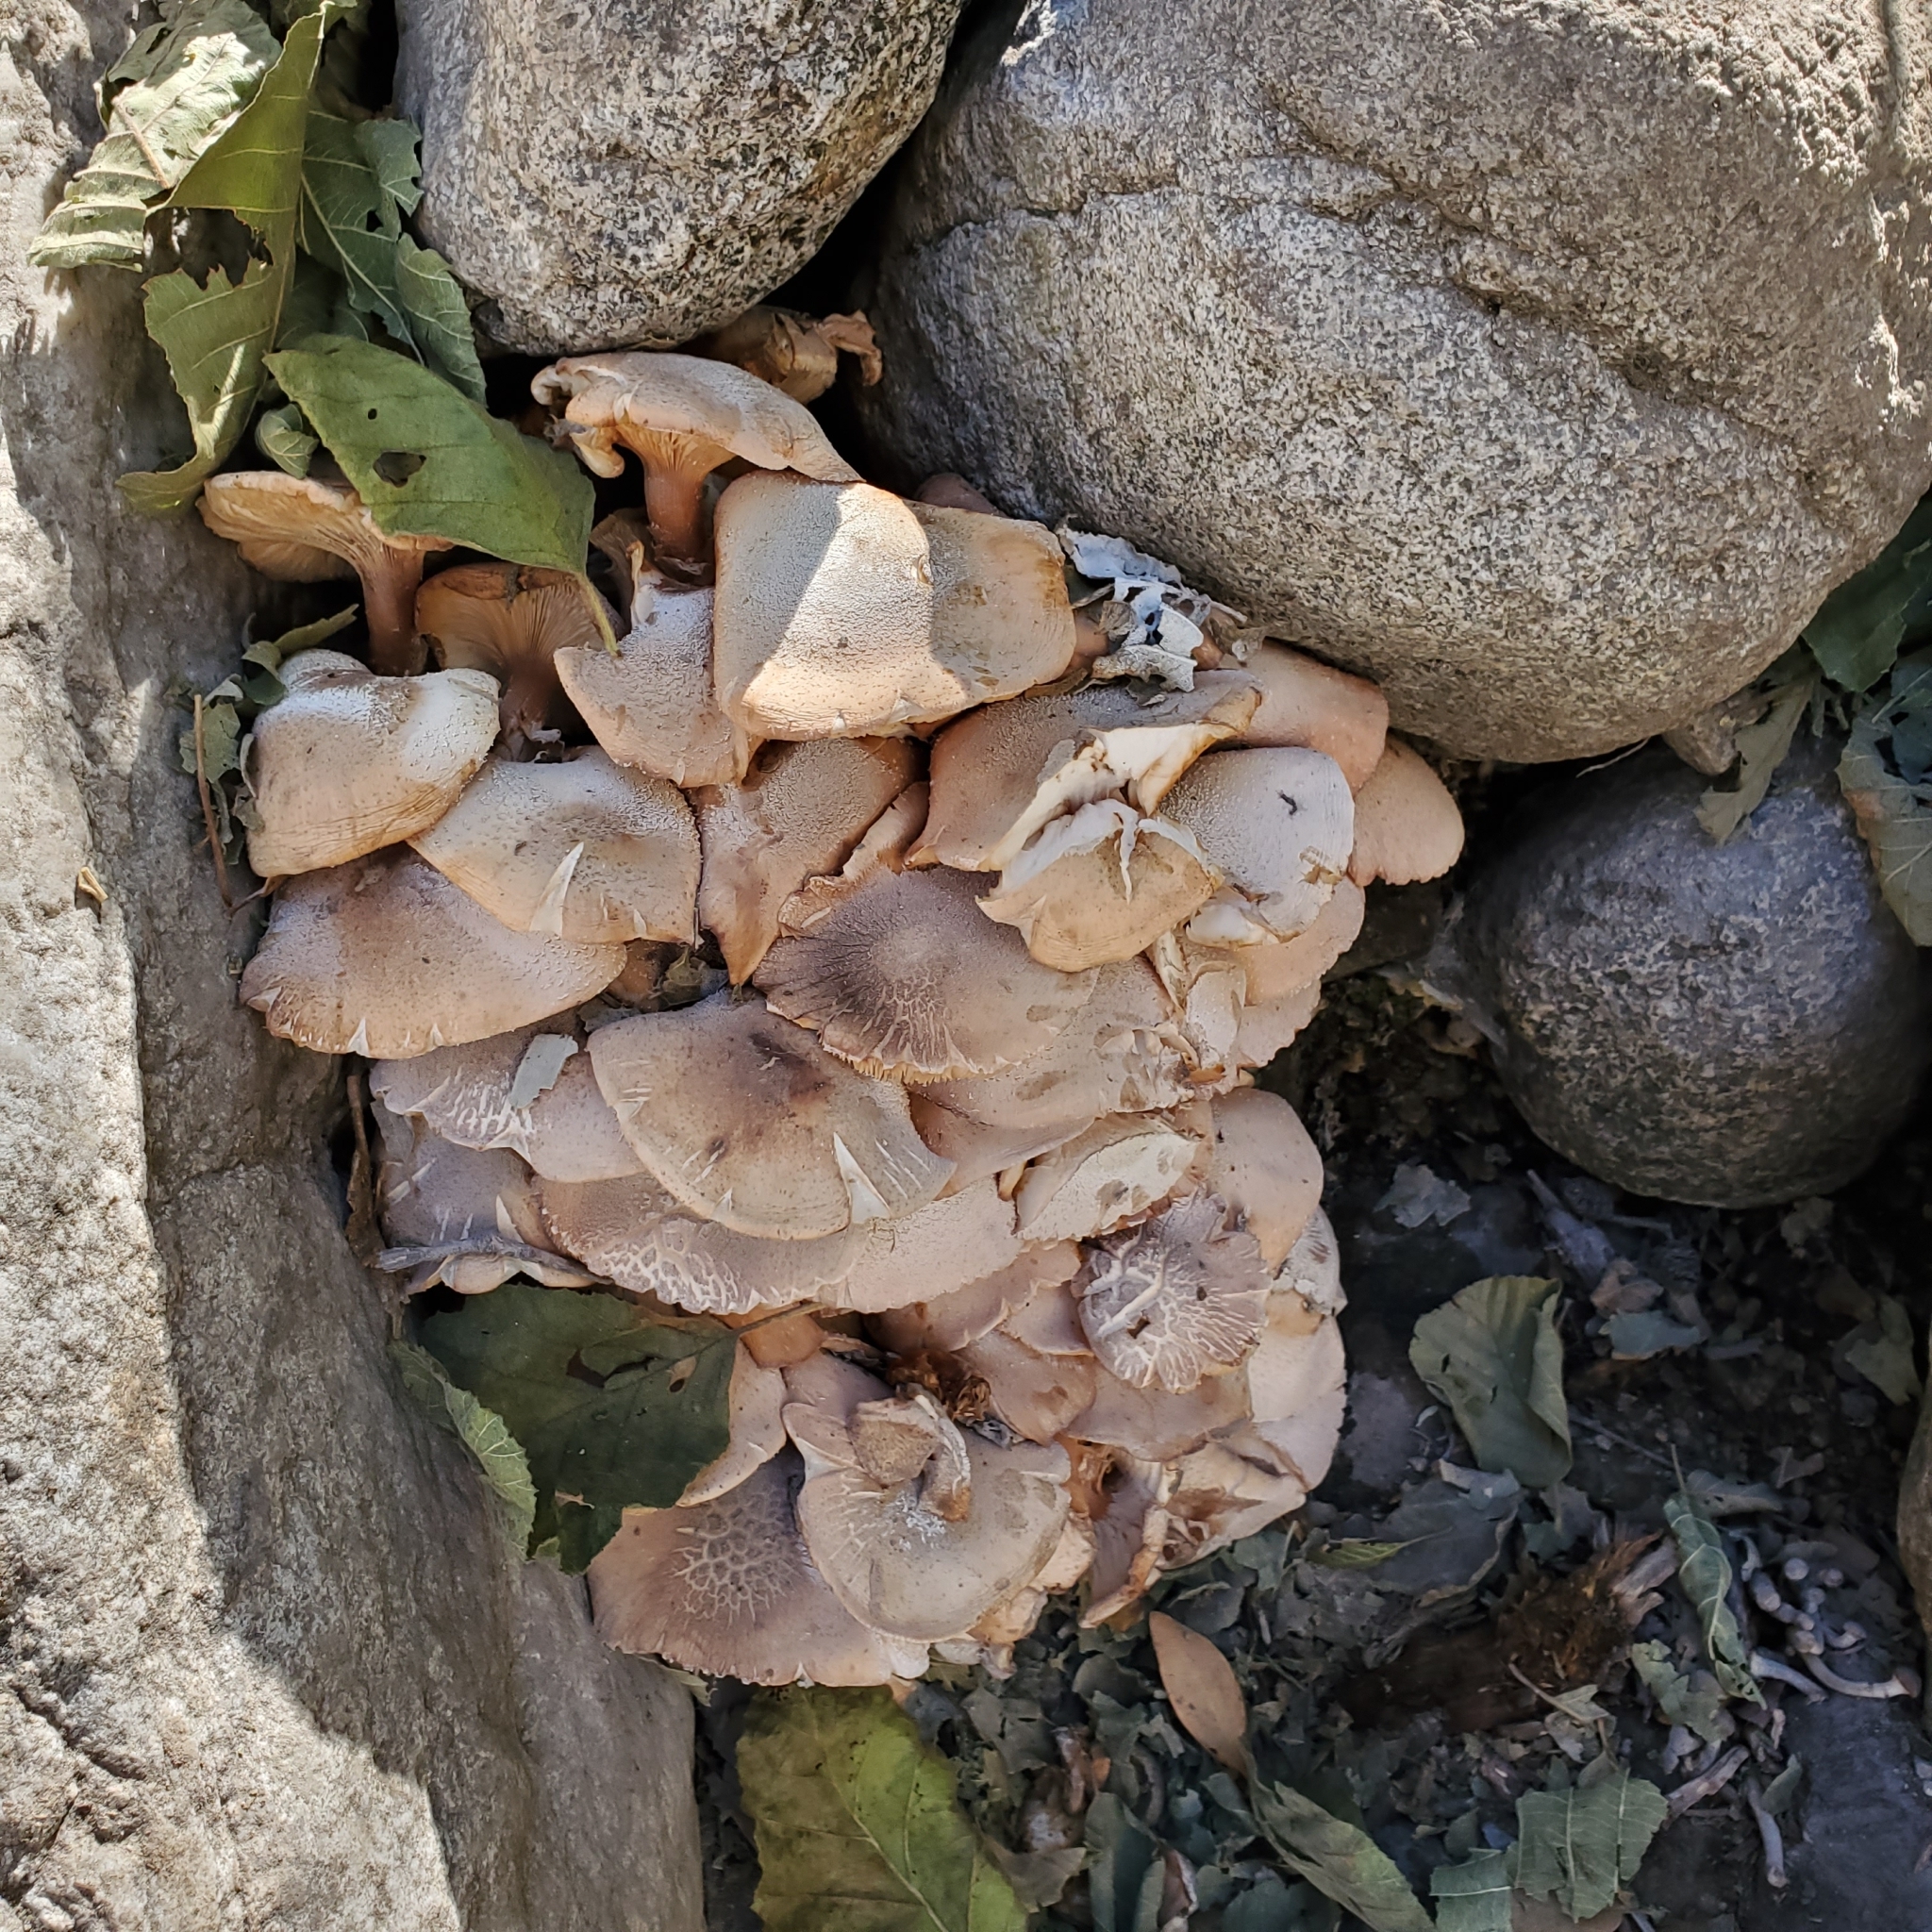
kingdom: Fungi
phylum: Basidiomycota
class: Agaricomycetes
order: Agaricales
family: Physalacriaceae
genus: Armillaria
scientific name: Armillaria mellea
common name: Honey fungus
